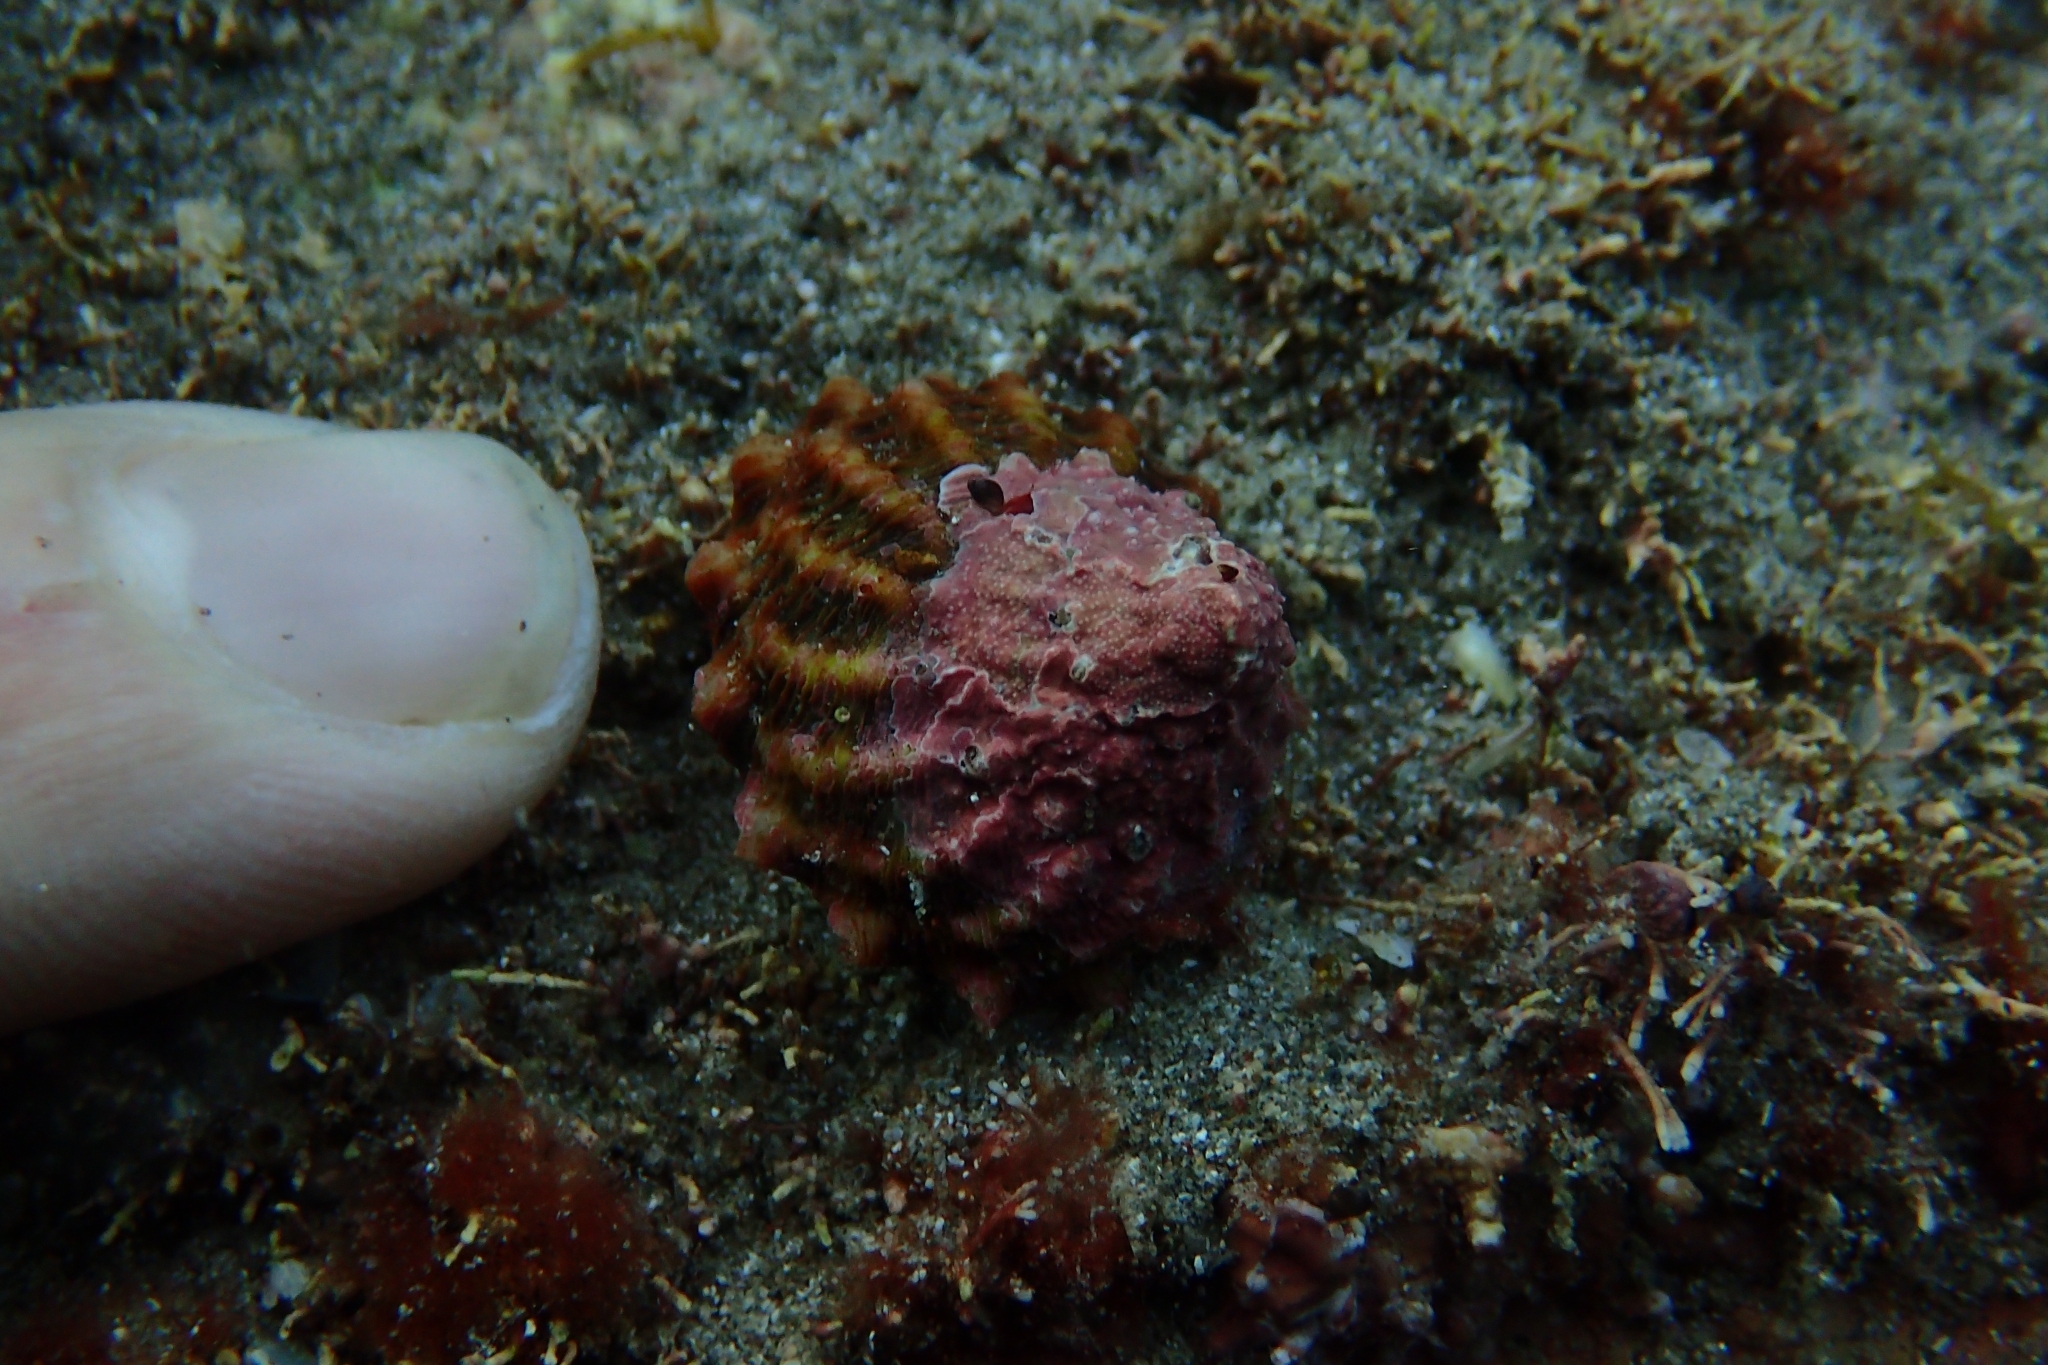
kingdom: Animalia
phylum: Mollusca
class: Gastropoda
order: Trochida
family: Turbinidae
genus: Cookia
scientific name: Cookia sulcata
